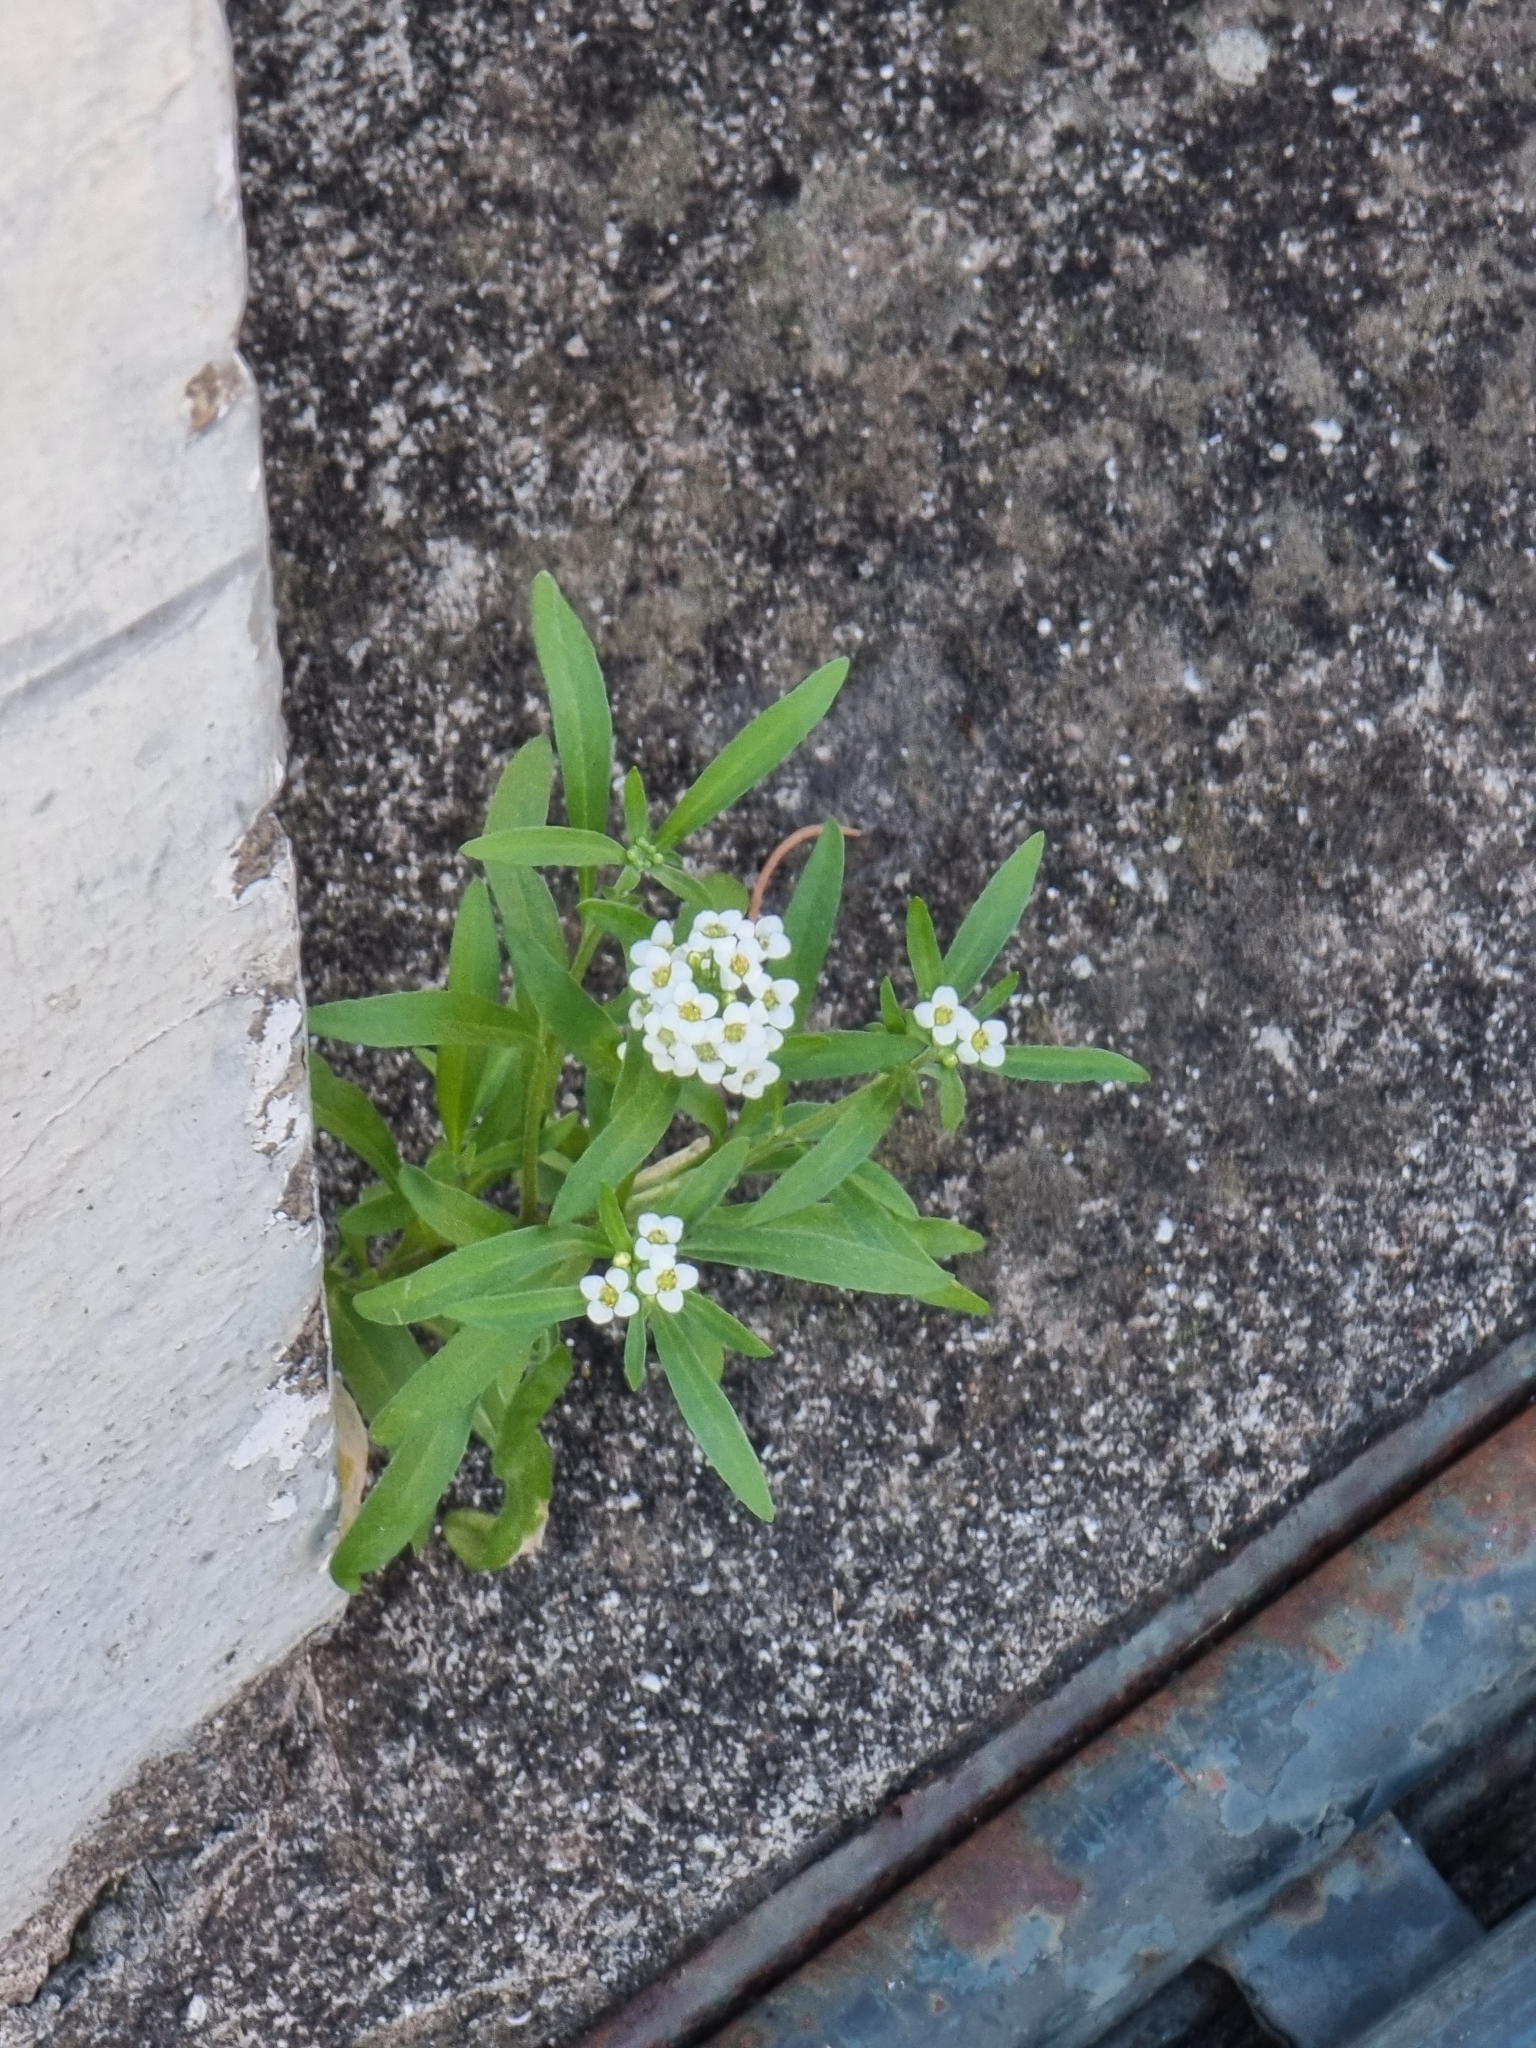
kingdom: Plantae
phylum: Tracheophyta
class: Magnoliopsida
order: Brassicales
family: Brassicaceae
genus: Lobularia
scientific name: Lobularia maritima
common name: Sweet alison
